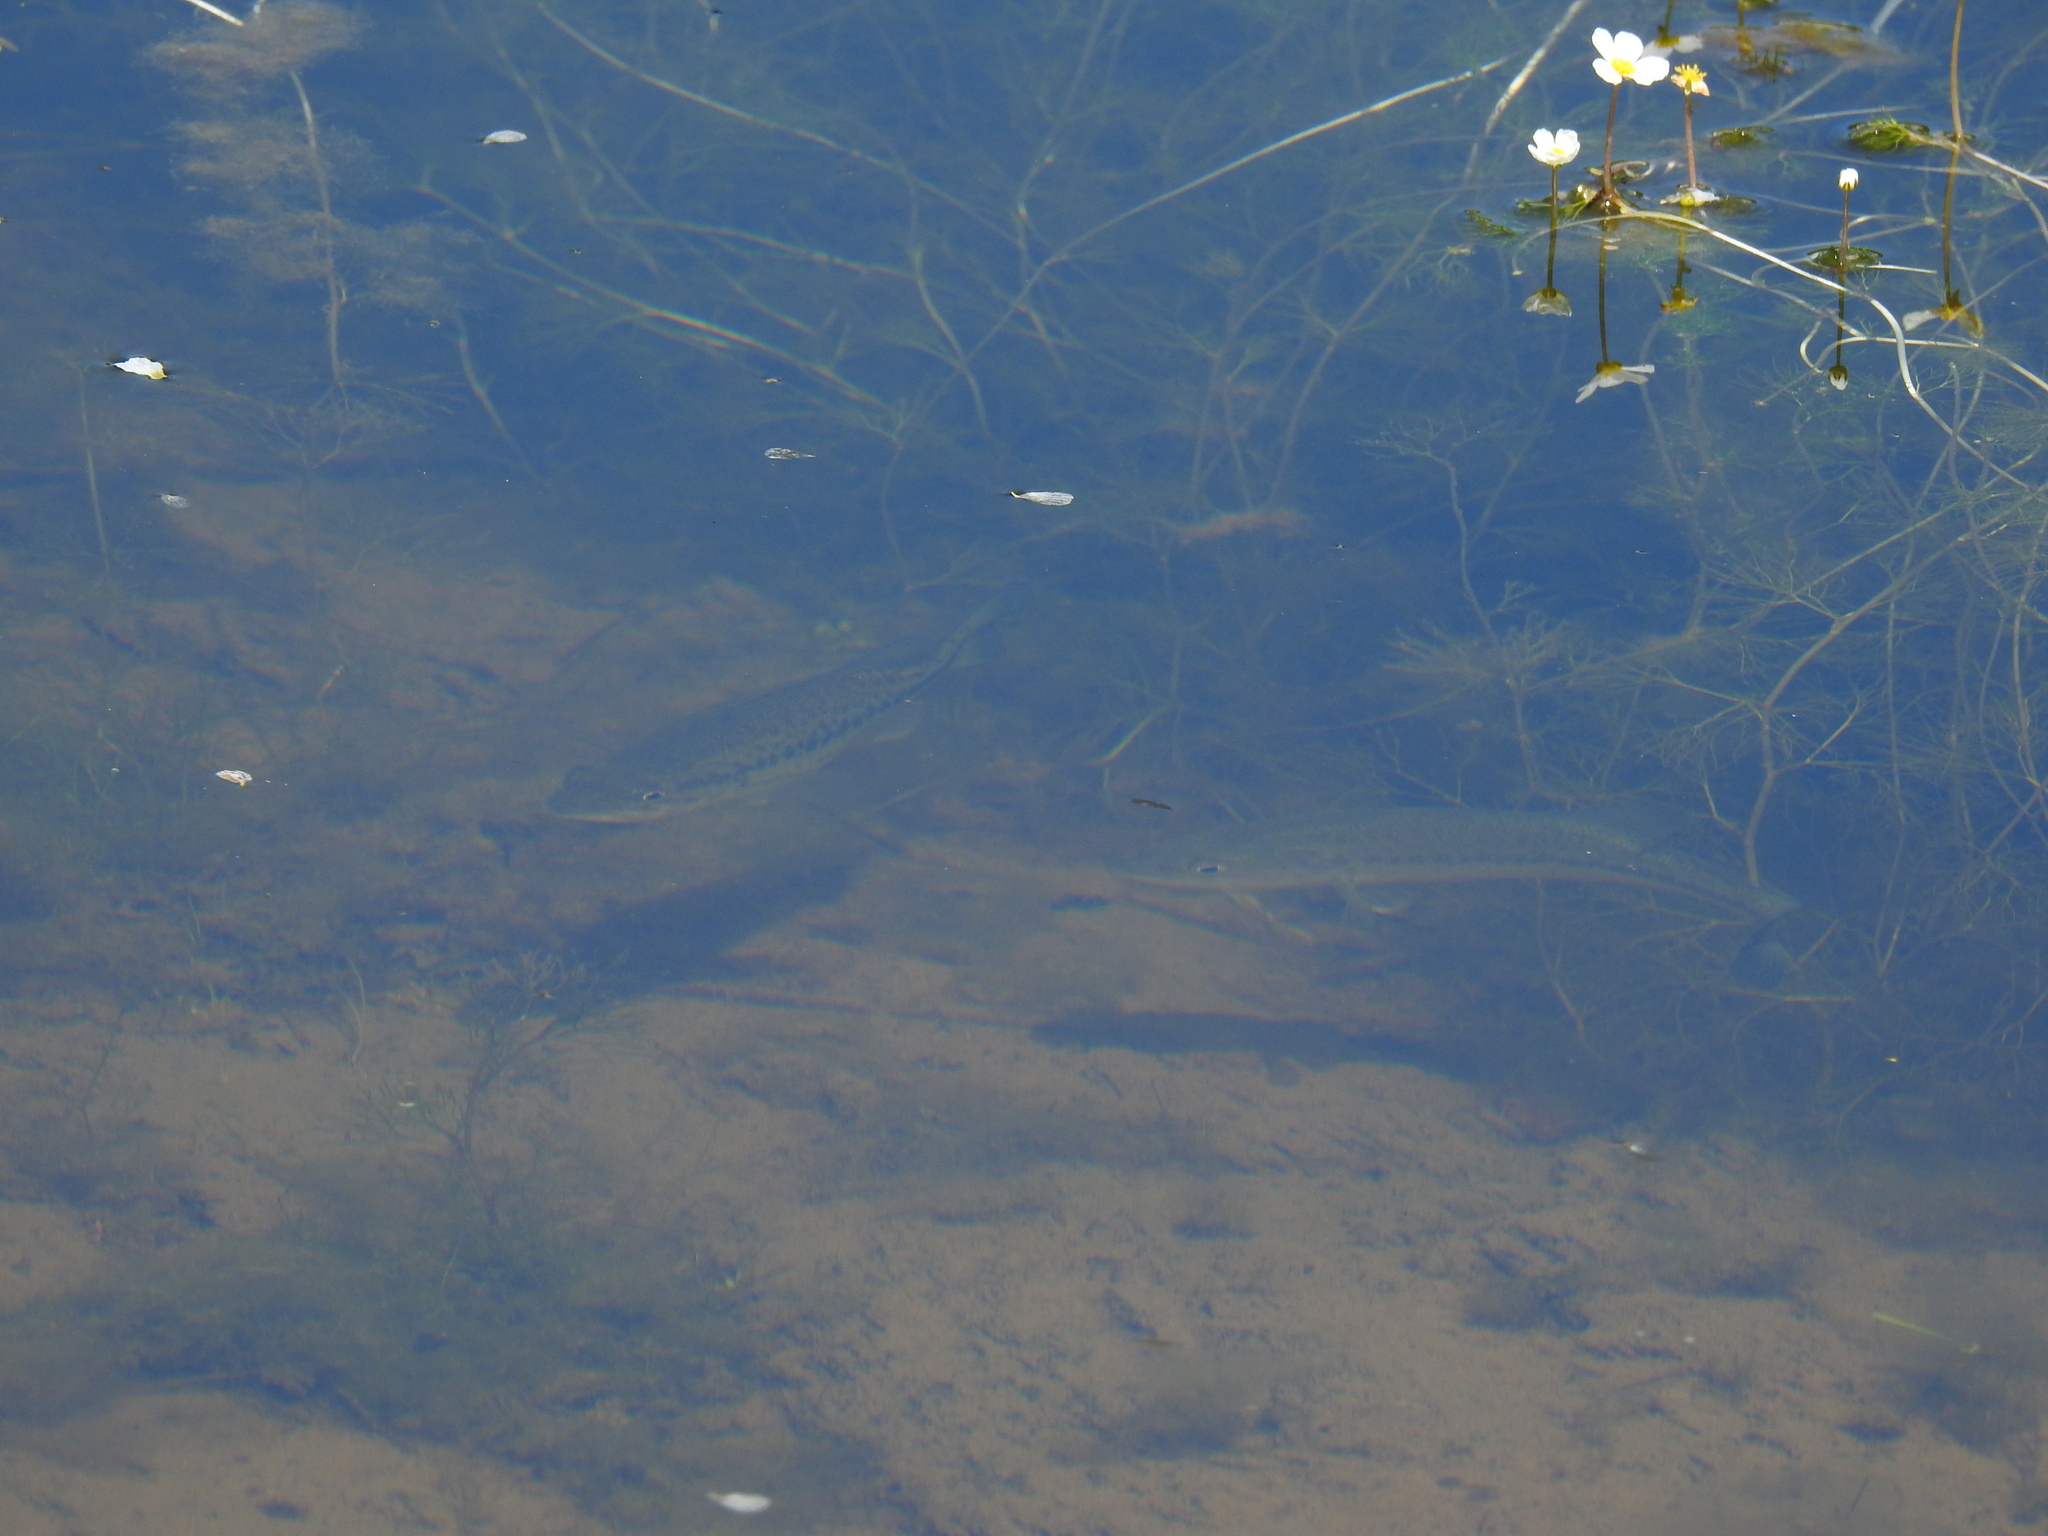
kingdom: Animalia
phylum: Chordata
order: Perciformes
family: Centrarchidae
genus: Micropterus
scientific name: Micropterus
